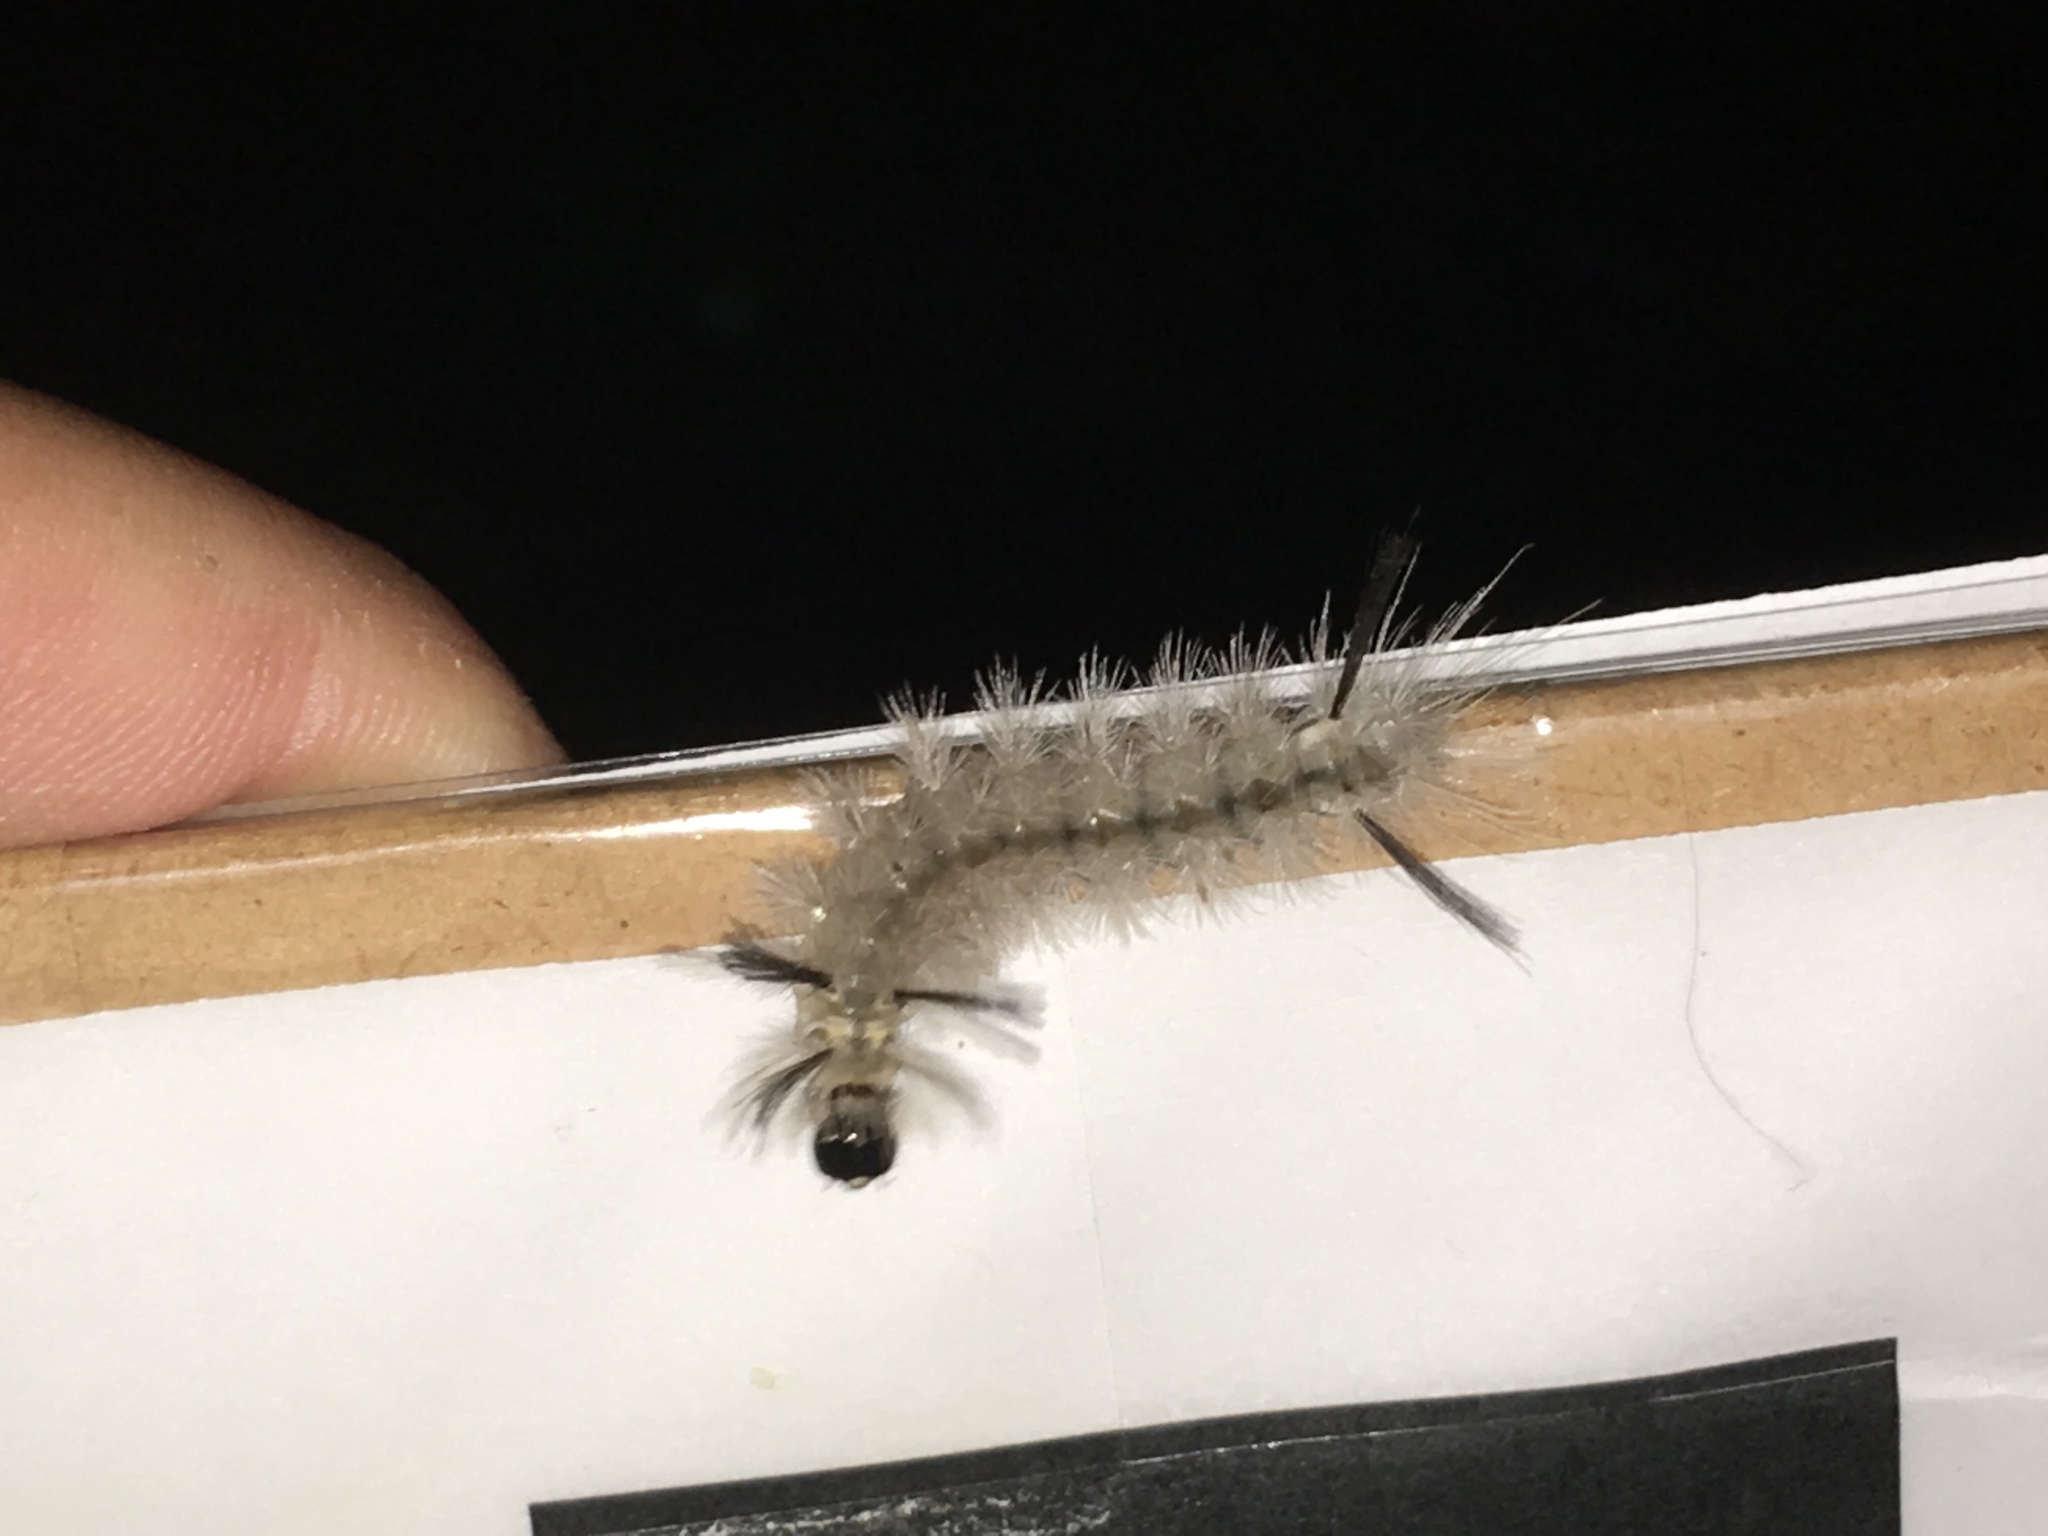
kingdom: Animalia
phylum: Arthropoda
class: Insecta
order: Lepidoptera
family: Erebidae
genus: Halysidota
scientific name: Halysidota tessellaris
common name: Banded tussock moth
